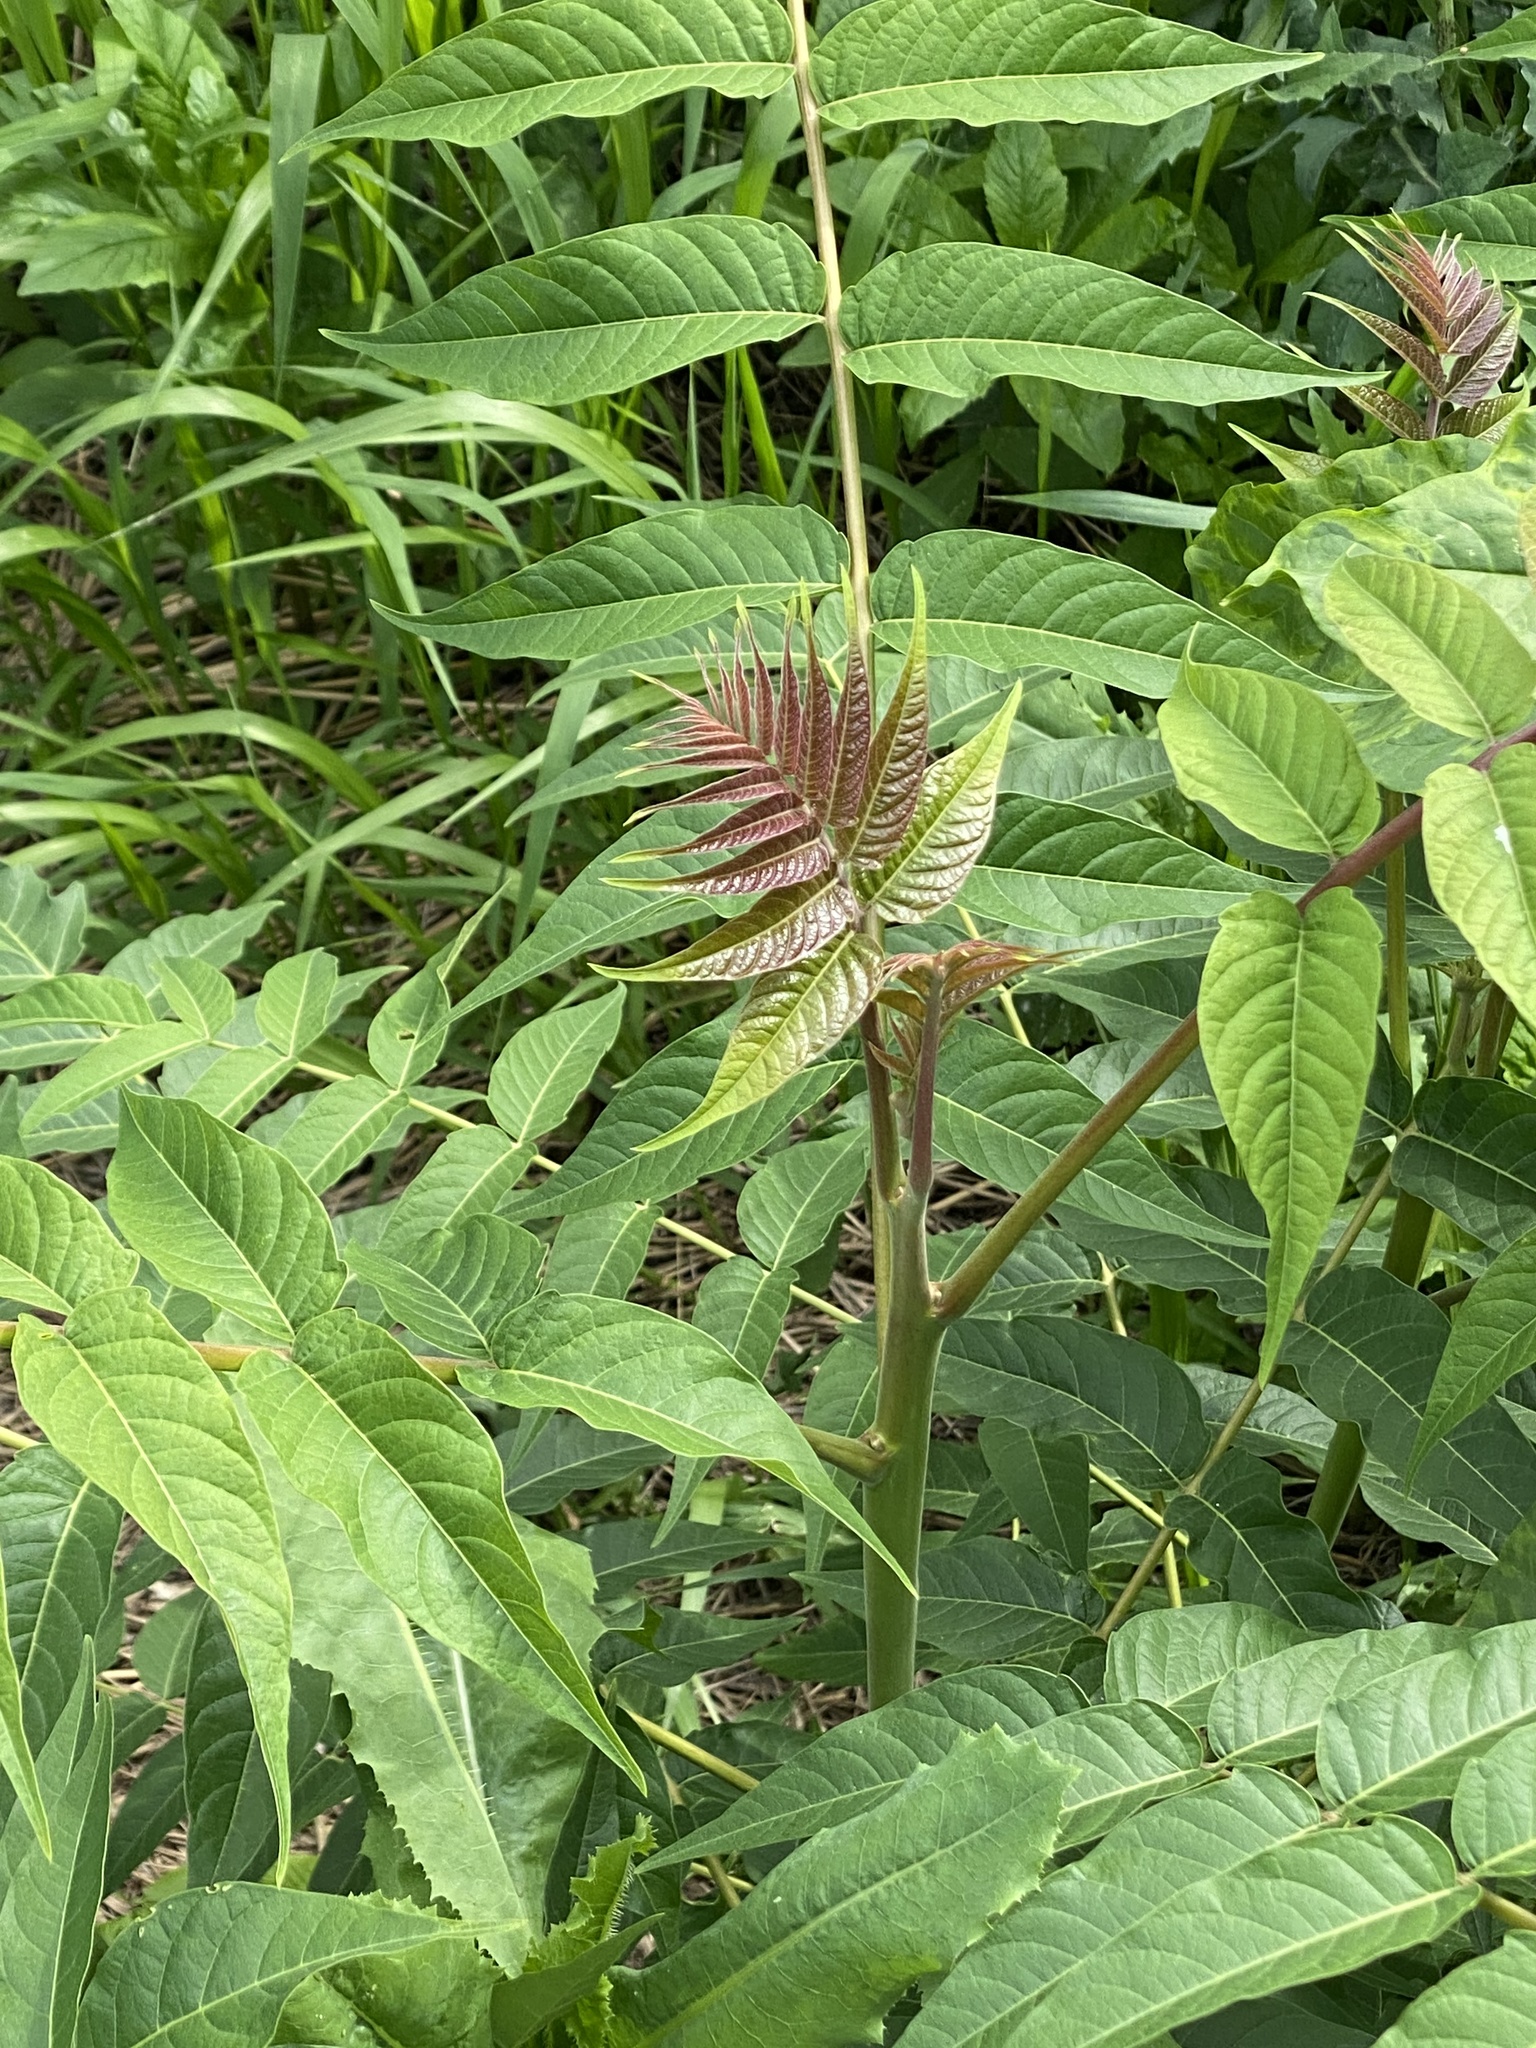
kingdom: Plantae
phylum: Tracheophyta
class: Magnoliopsida
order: Sapindales
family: Simaroubaceae
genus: Ailanthus
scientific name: Ailanthus altissima
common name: Tree-of-heaven
